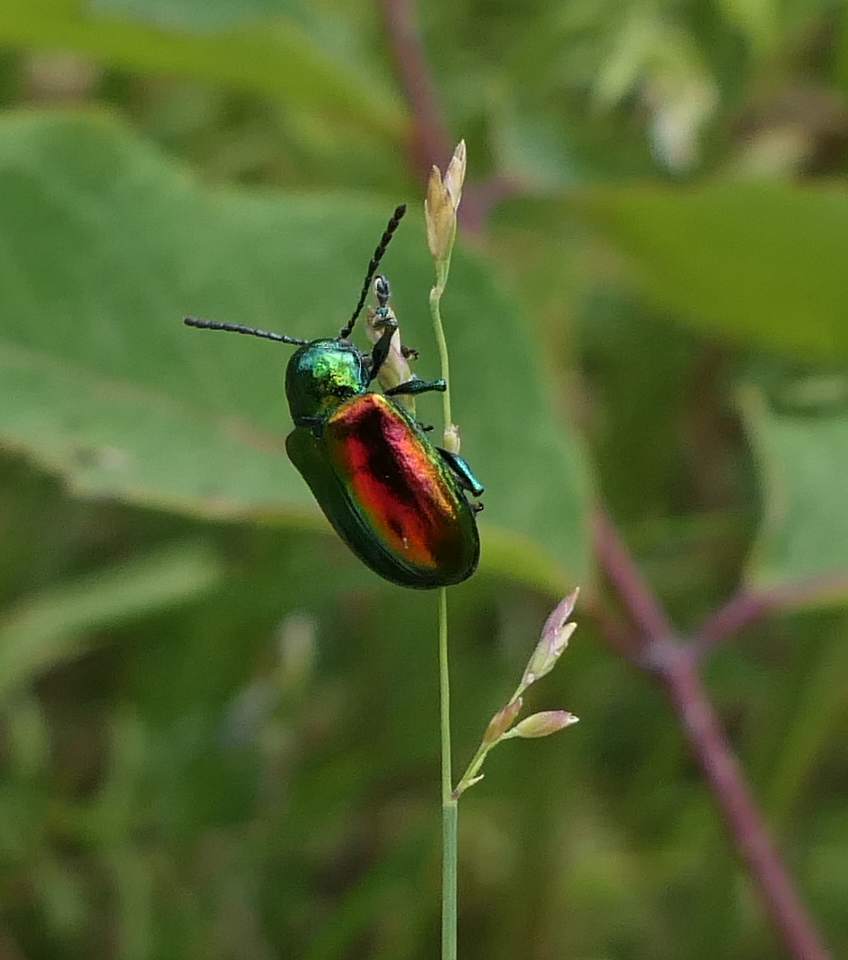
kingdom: Animalia
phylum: Arthropoda
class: Insecta
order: Coleoptera
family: Chrysomelidae
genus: Chrysochus
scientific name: Chrysochus auratus
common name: Dogbane leaf beetle
